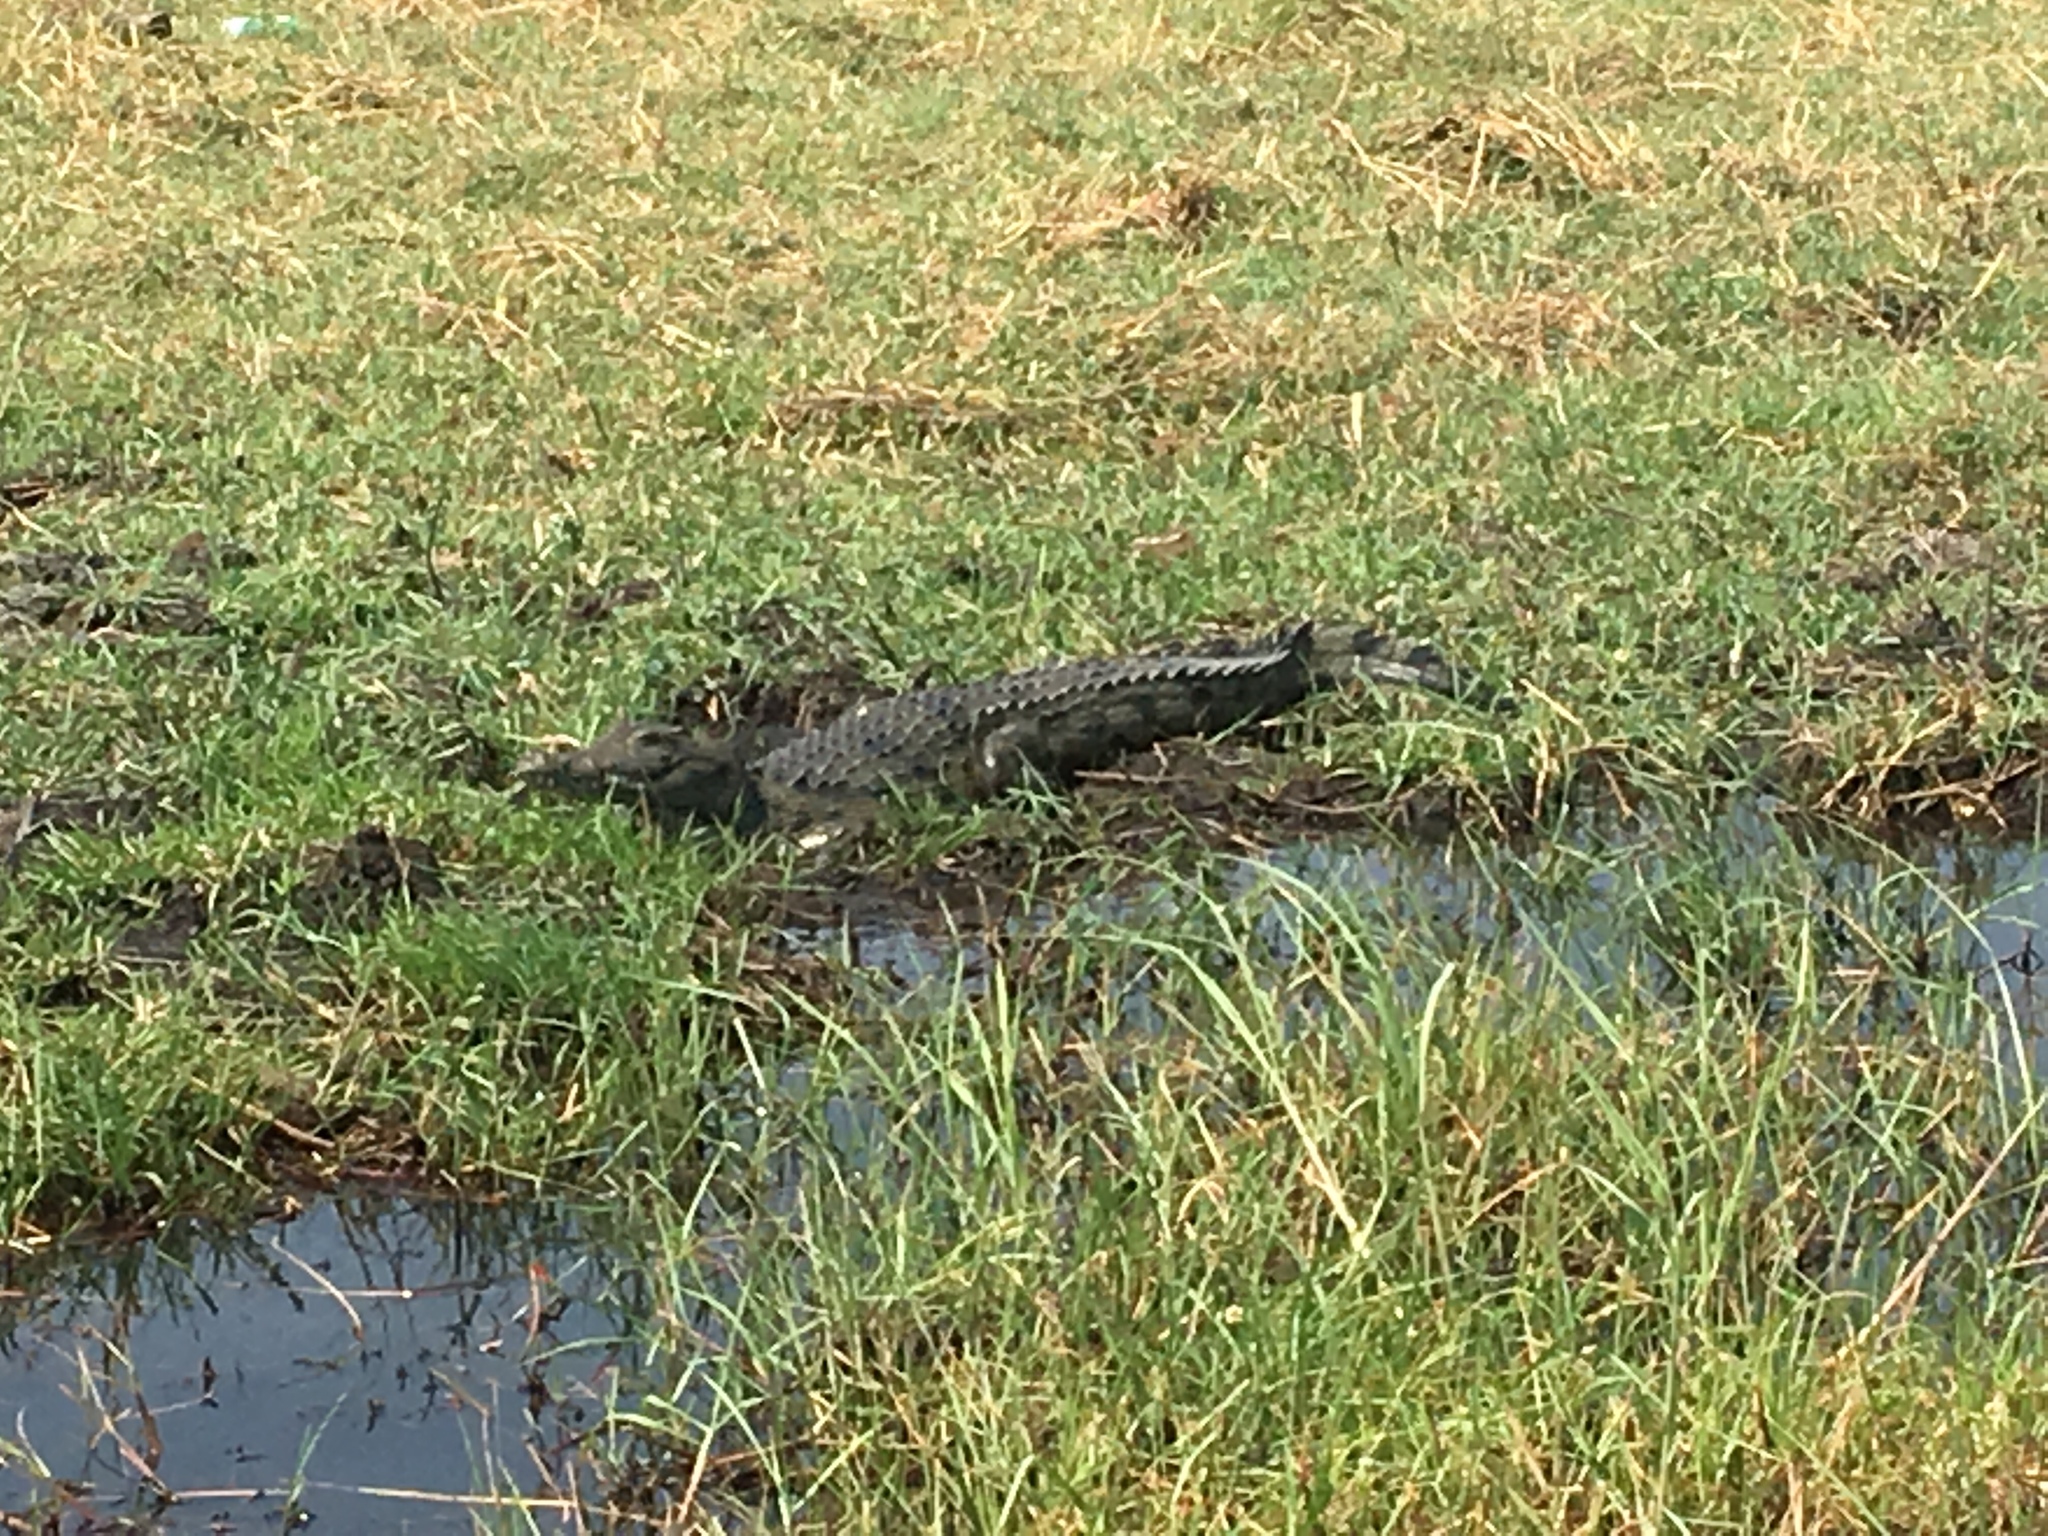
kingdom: Animalia
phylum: Chordata
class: Crocodylia
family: Crocodylidae
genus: Crocodylus
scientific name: Crocodylus niloticus
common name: Nile crocodile
